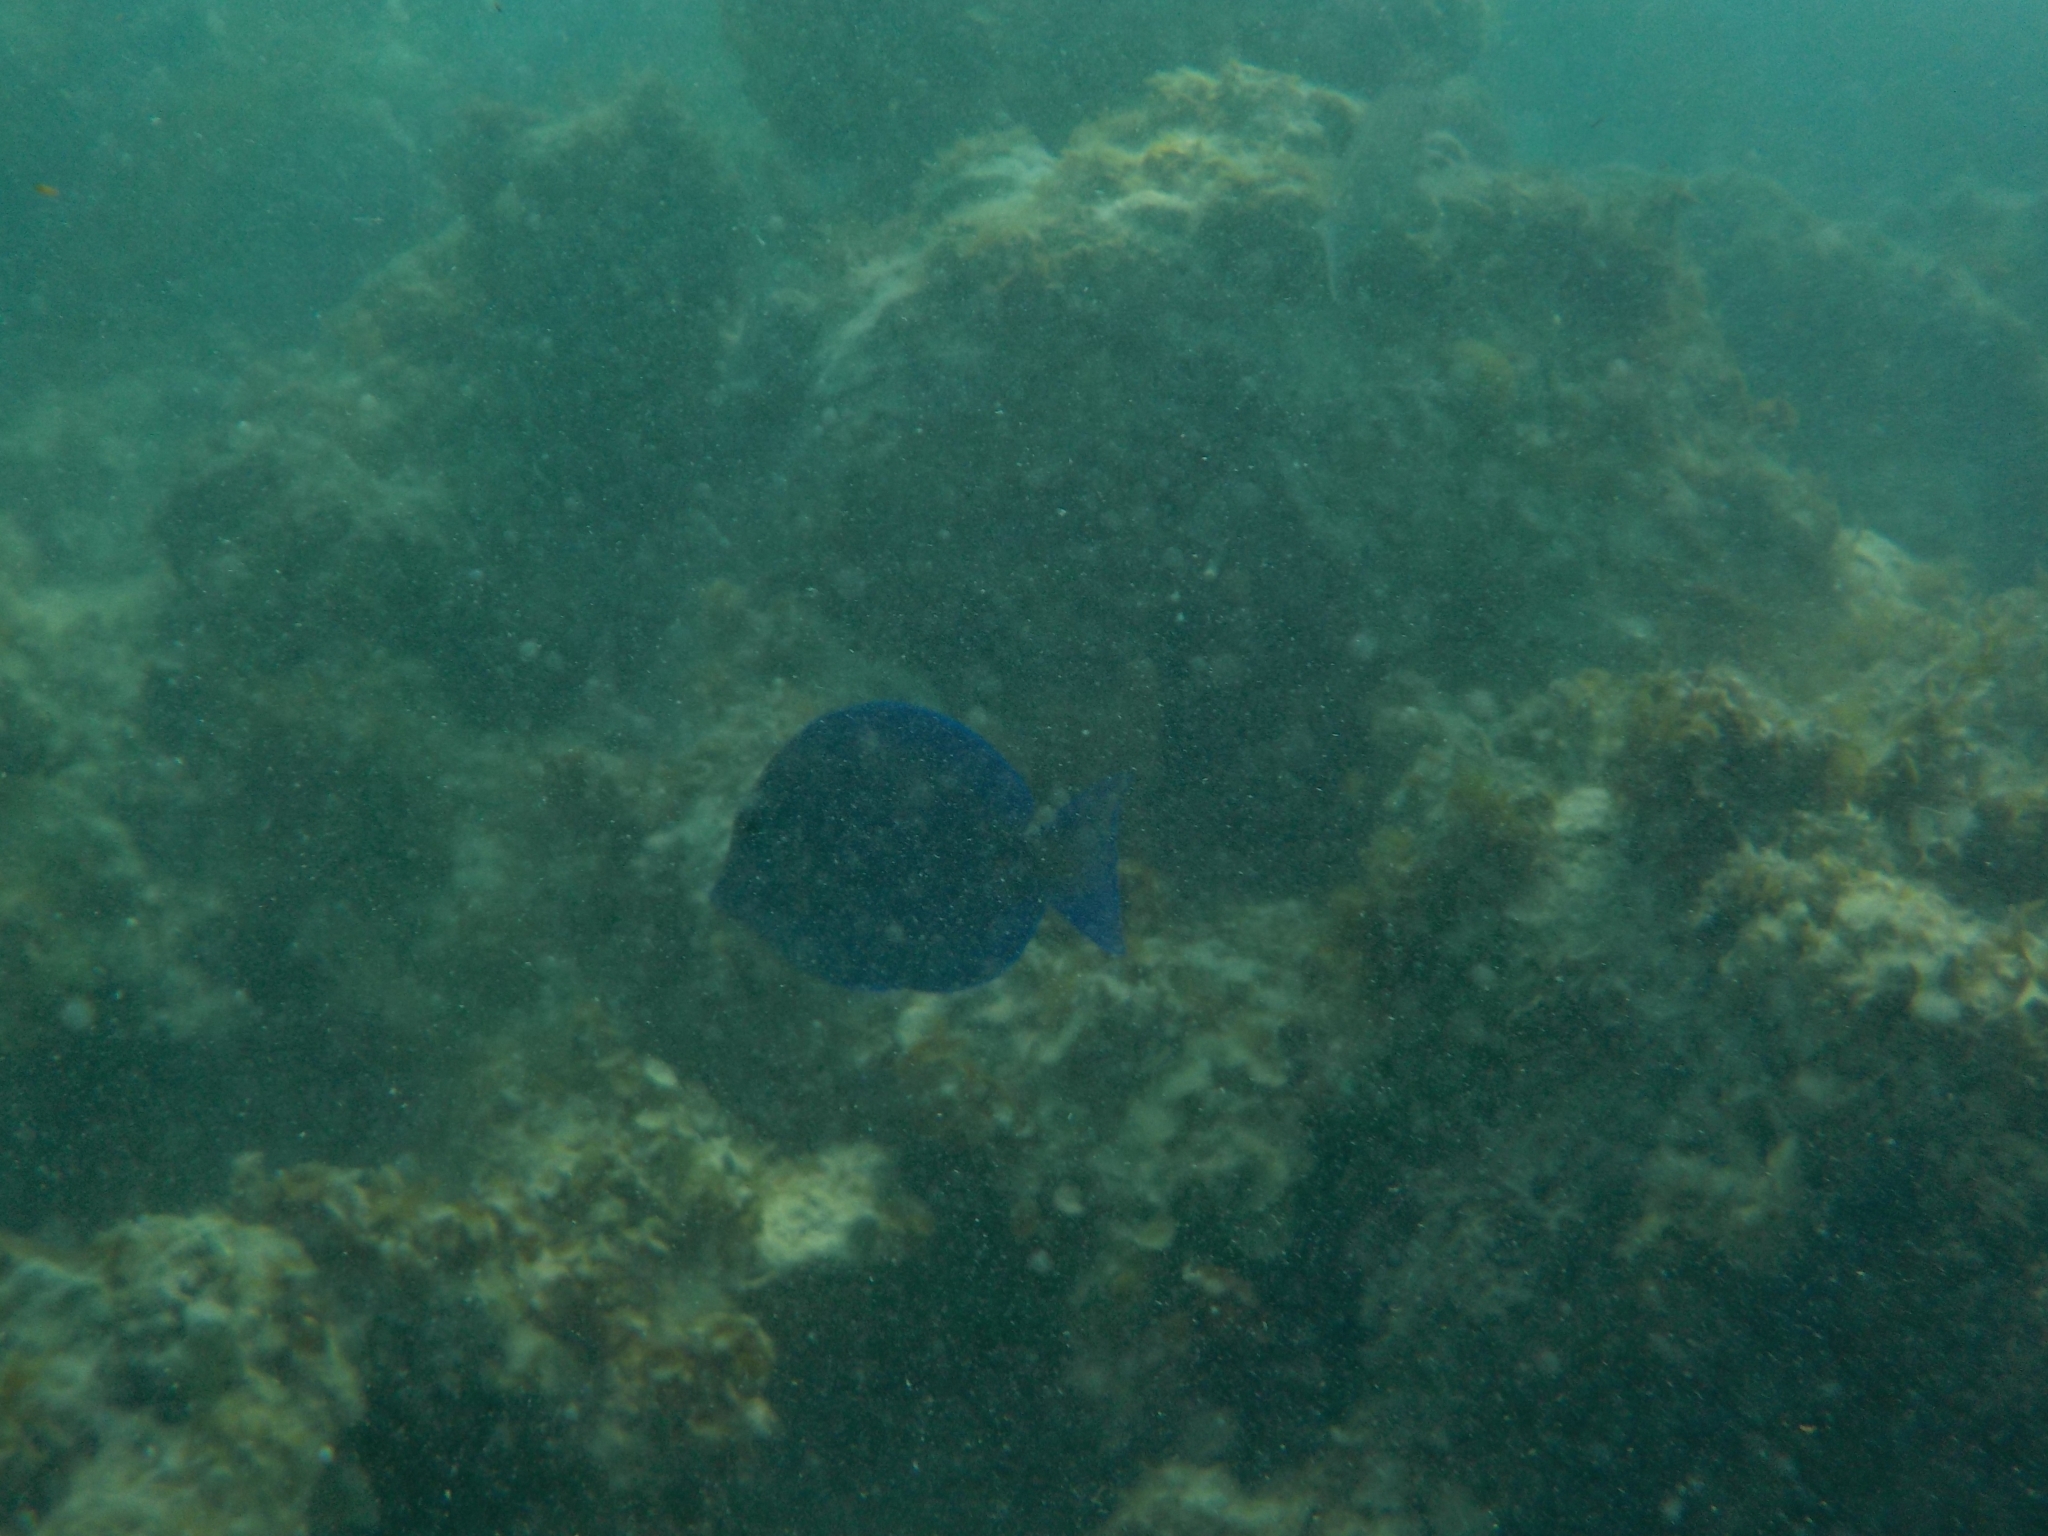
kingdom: Animalia
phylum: Chordata
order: Perciformes
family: Acanthuridae
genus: Acanthurus
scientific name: Acanthurus coeruleus
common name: Blue tang
